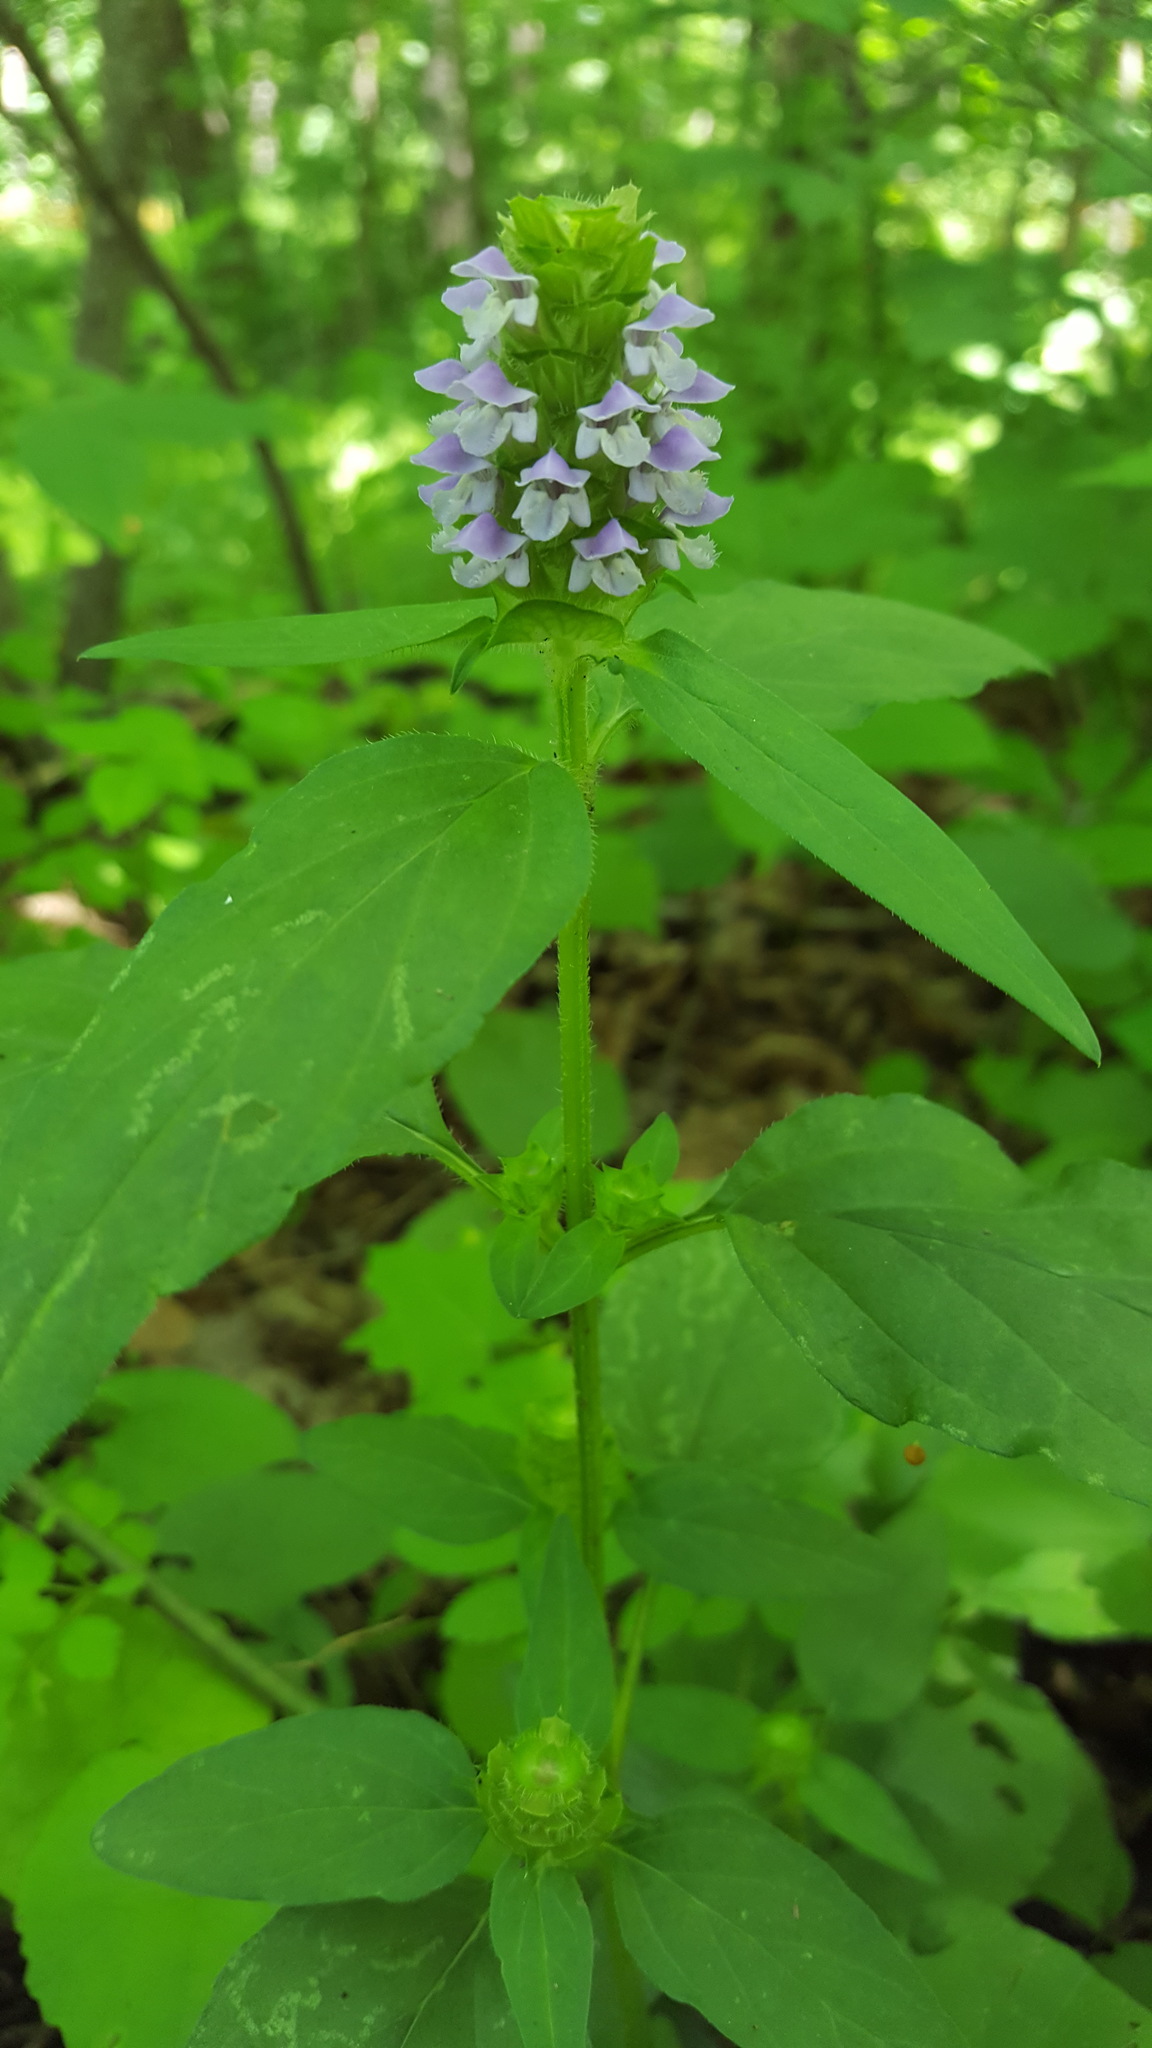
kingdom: Plantae
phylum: Tracheophyta
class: Magnoliopsida
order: Lamiales
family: Lamiaceae
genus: Prunella
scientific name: Prunella vulgaris
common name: Heal-all
